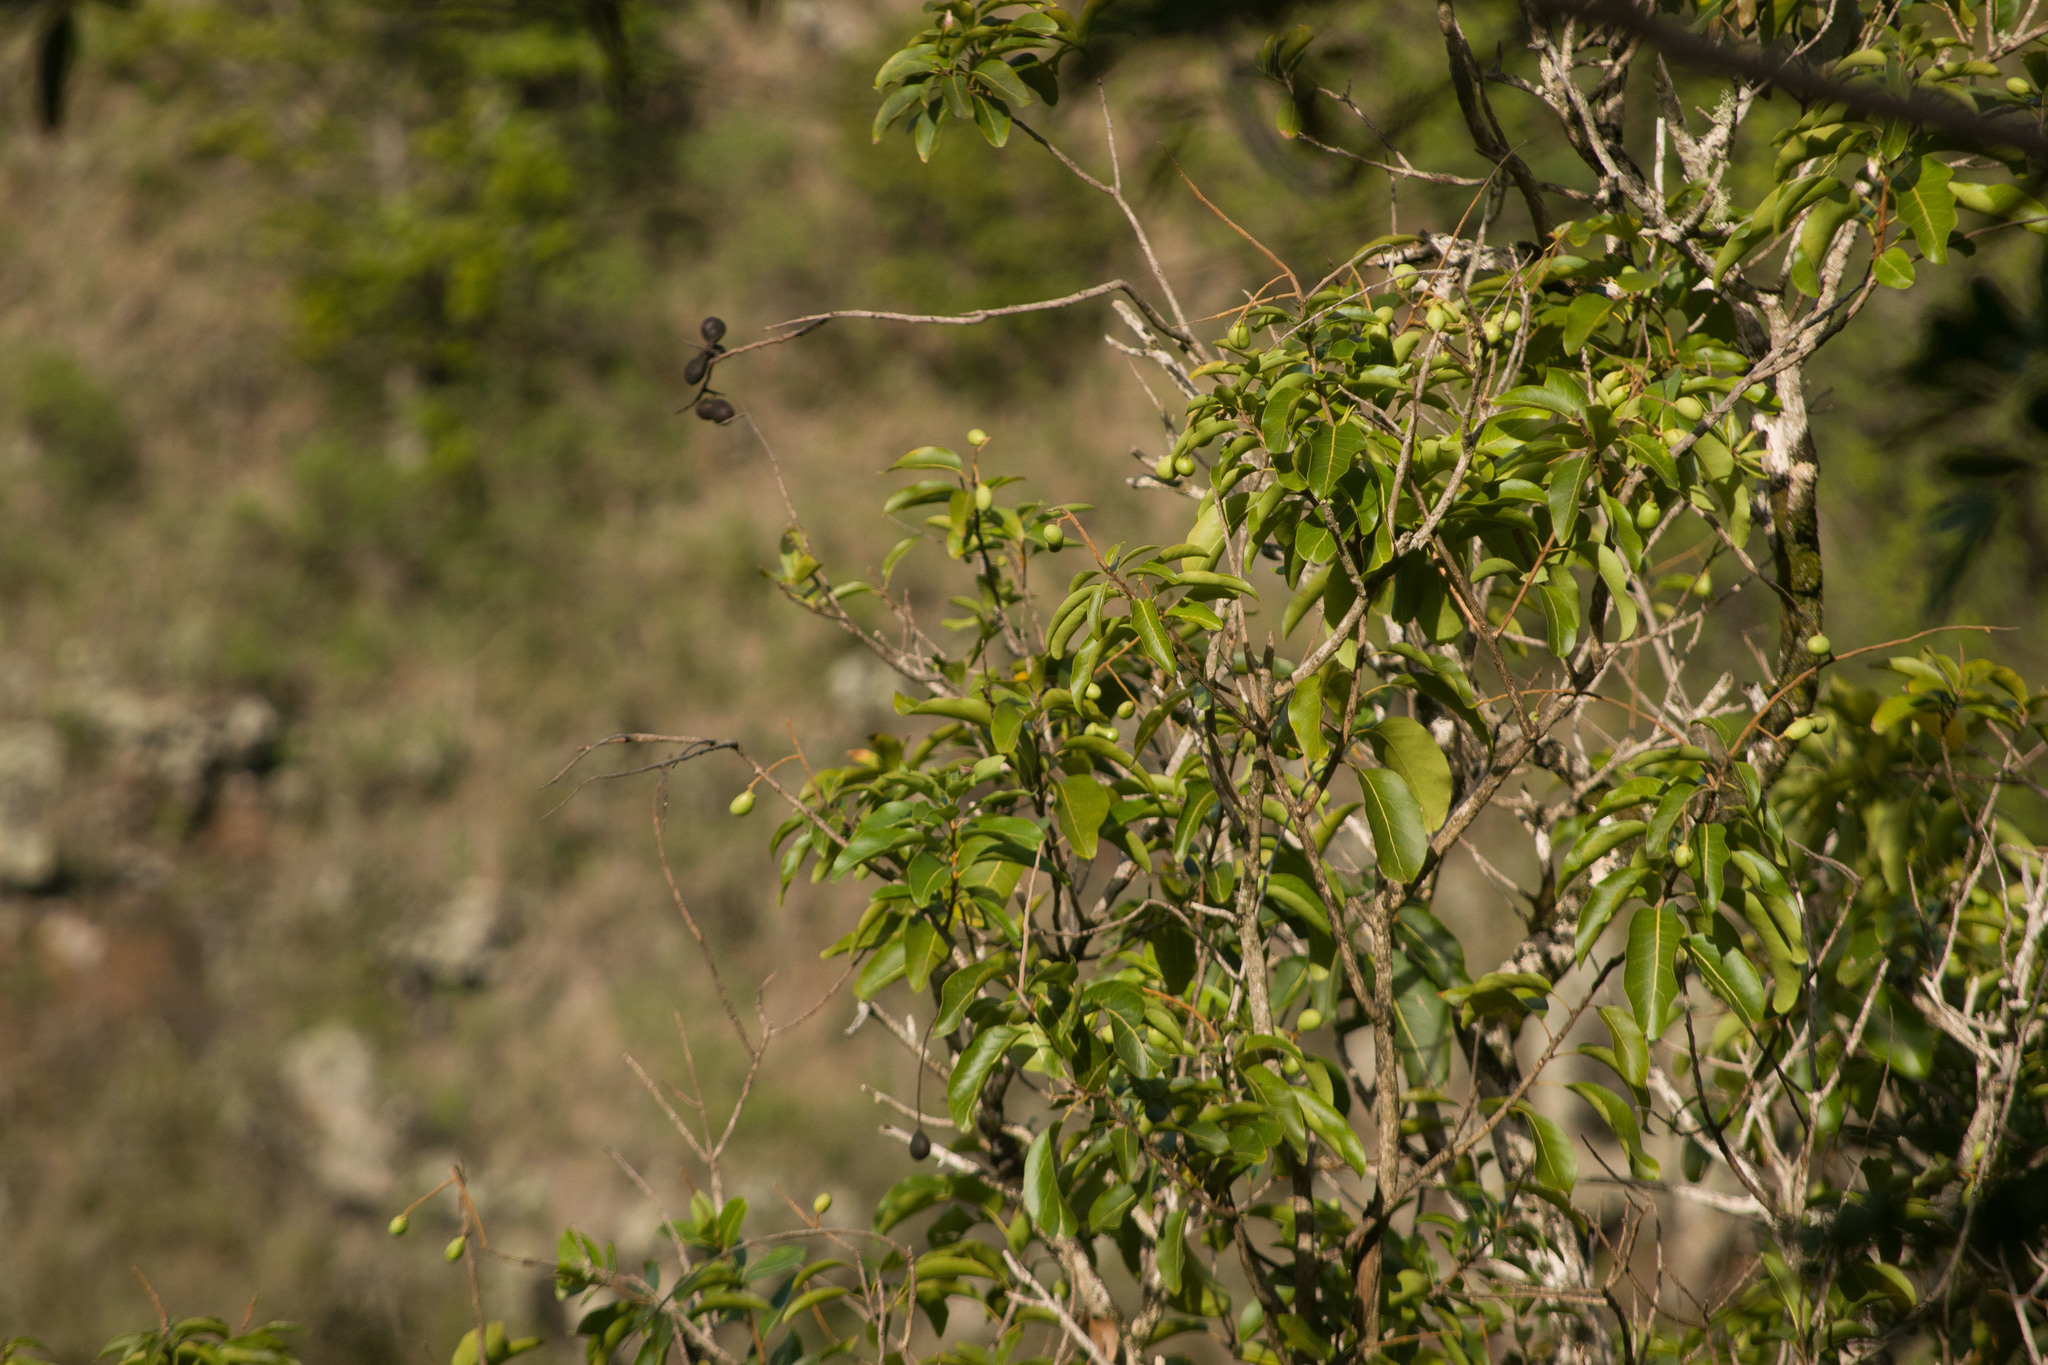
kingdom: Plantae
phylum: Tracheophyta
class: Magnoliopsida
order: Sapindales
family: Sapindaceae
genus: Sapindus
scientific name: Sapindus oahuensis
